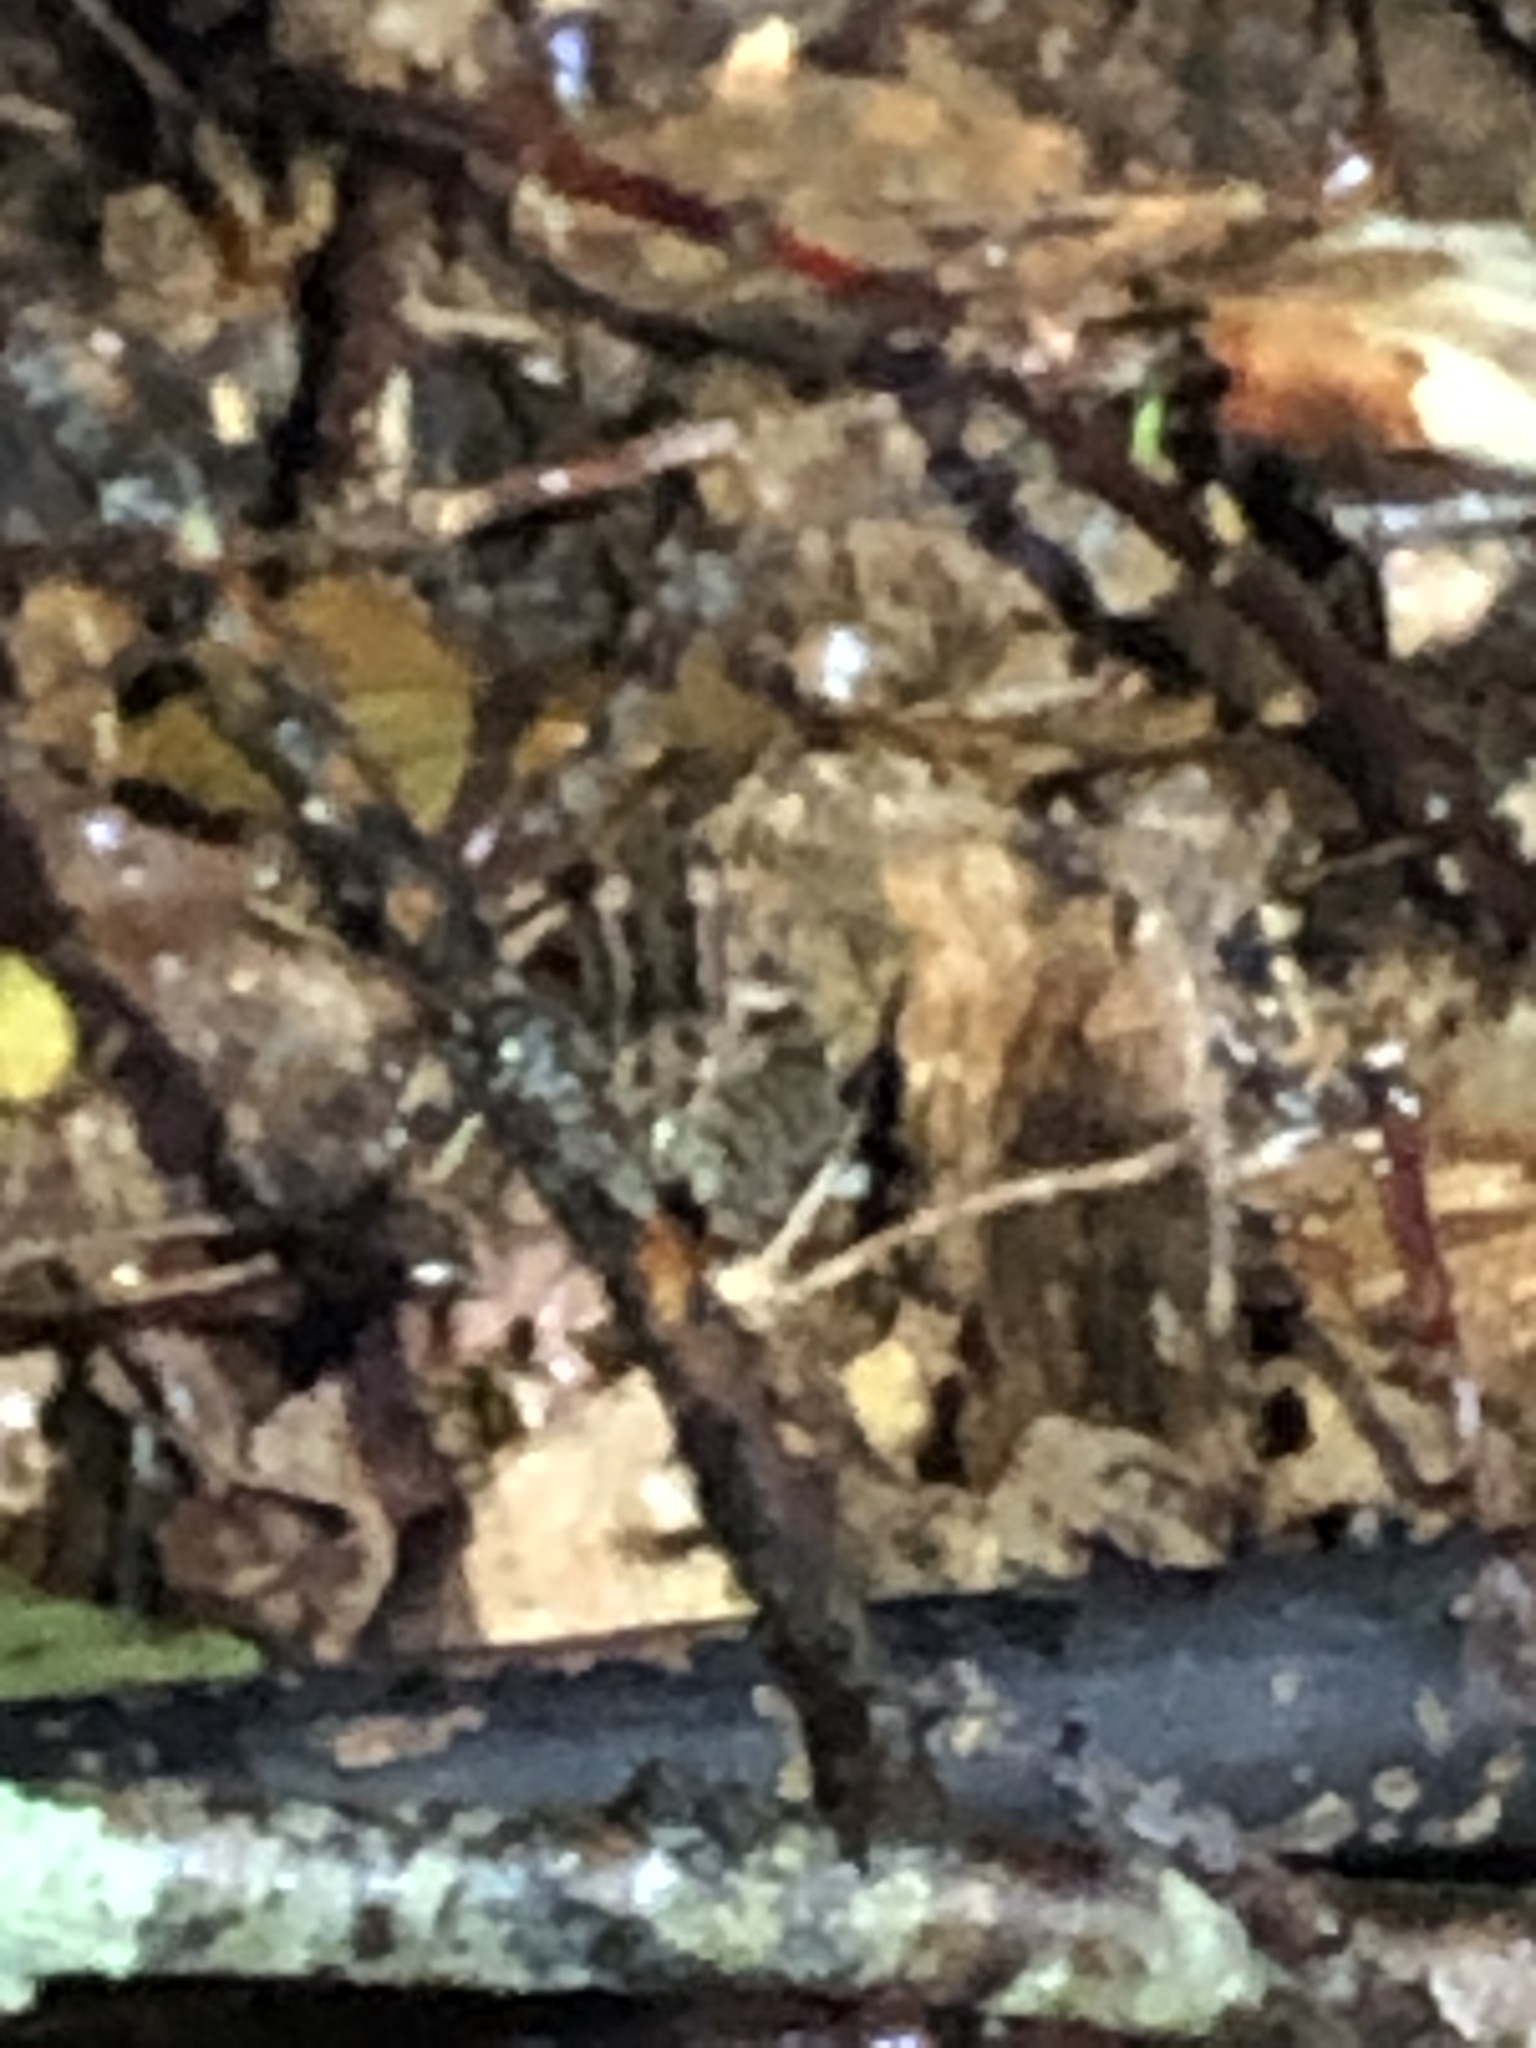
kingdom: Animalia
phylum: Chordata
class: Amphibia
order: Anura
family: Ranidae
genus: Lithobates
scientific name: Lithobates palustris
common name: Pickerel frog
